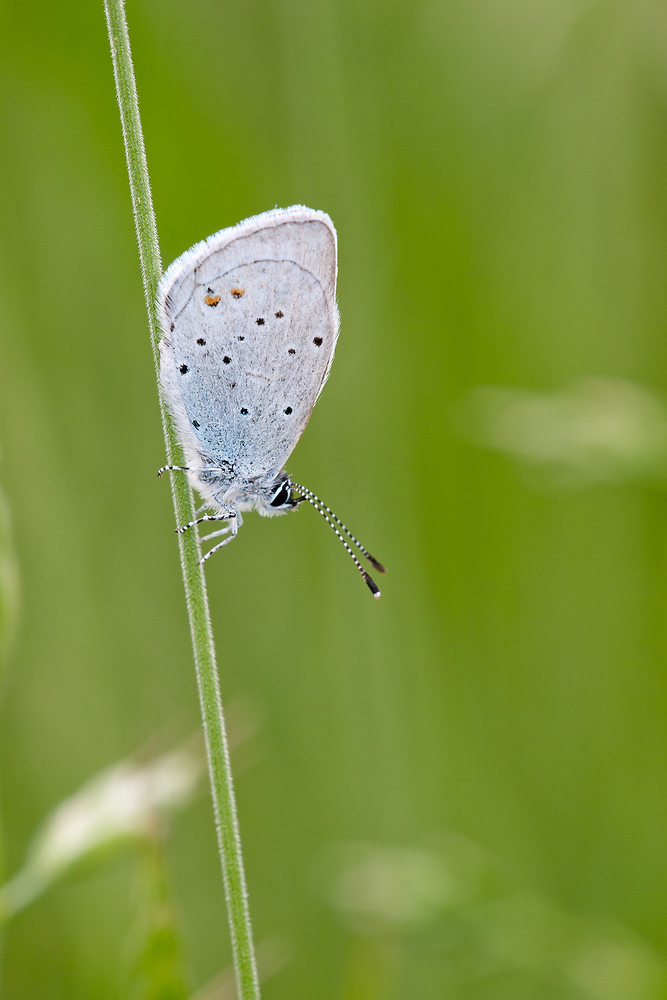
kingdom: Animalia
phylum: Arthropoda
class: Insecta
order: Lepidoptera
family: Lycaenidae
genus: Elkalyce
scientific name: Elkalyce argiades
